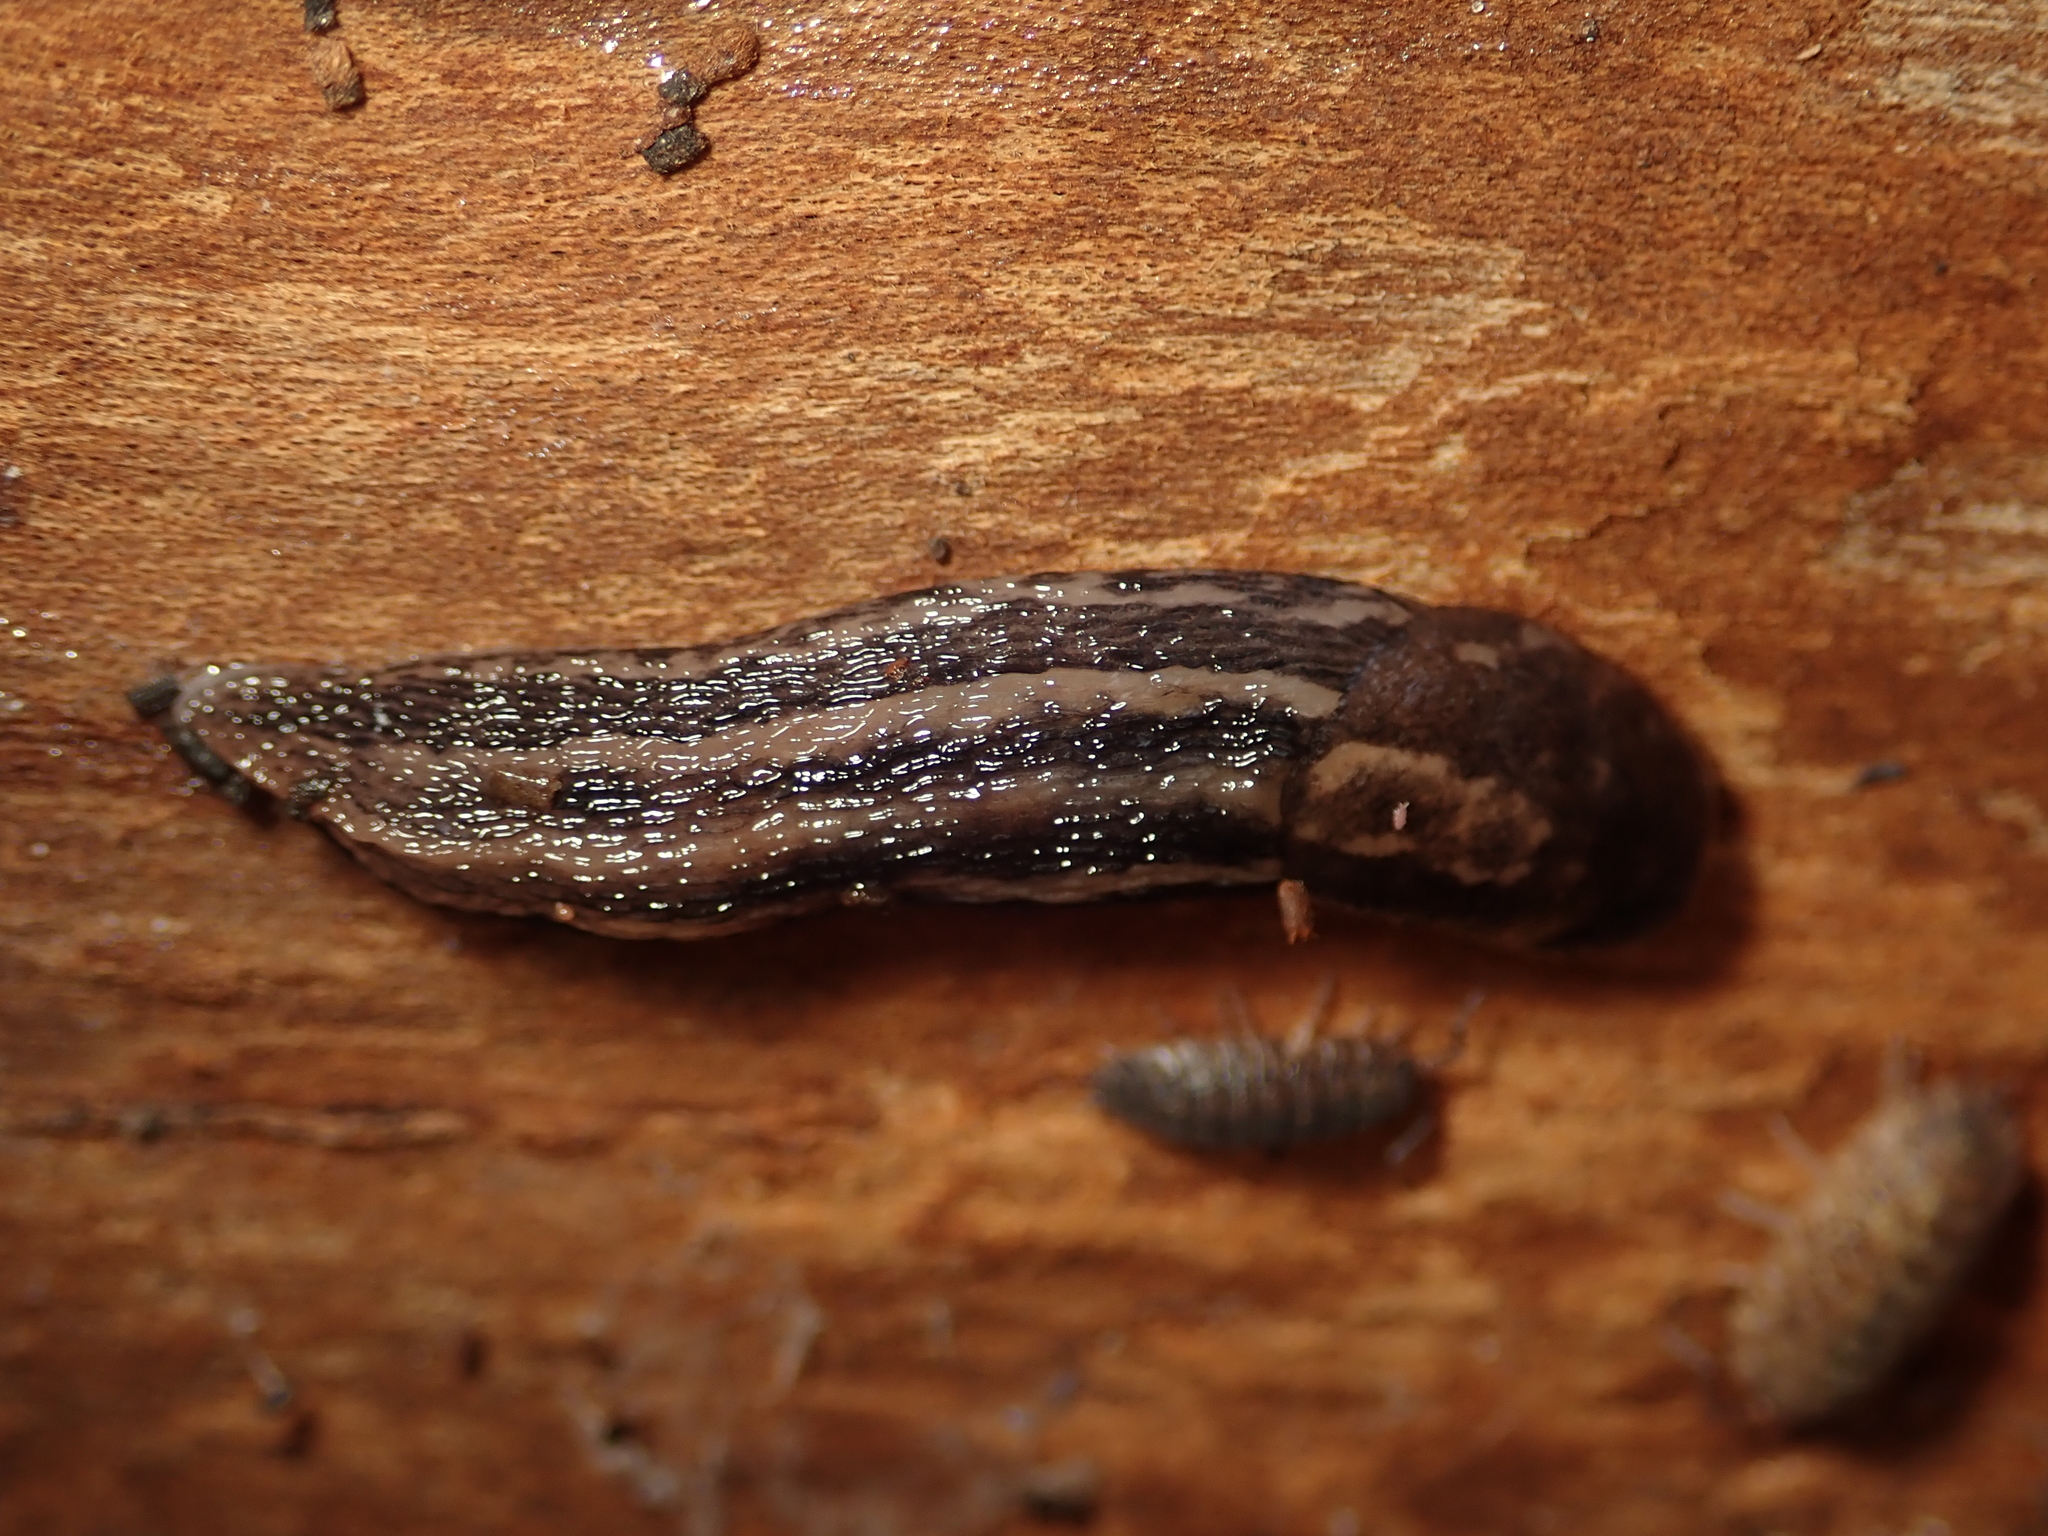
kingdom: Animalia
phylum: Mollusca
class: Gastropoda
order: Stylommatophora
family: Limacidae
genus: Limax
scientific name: Limax maximus
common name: Great grey slug
